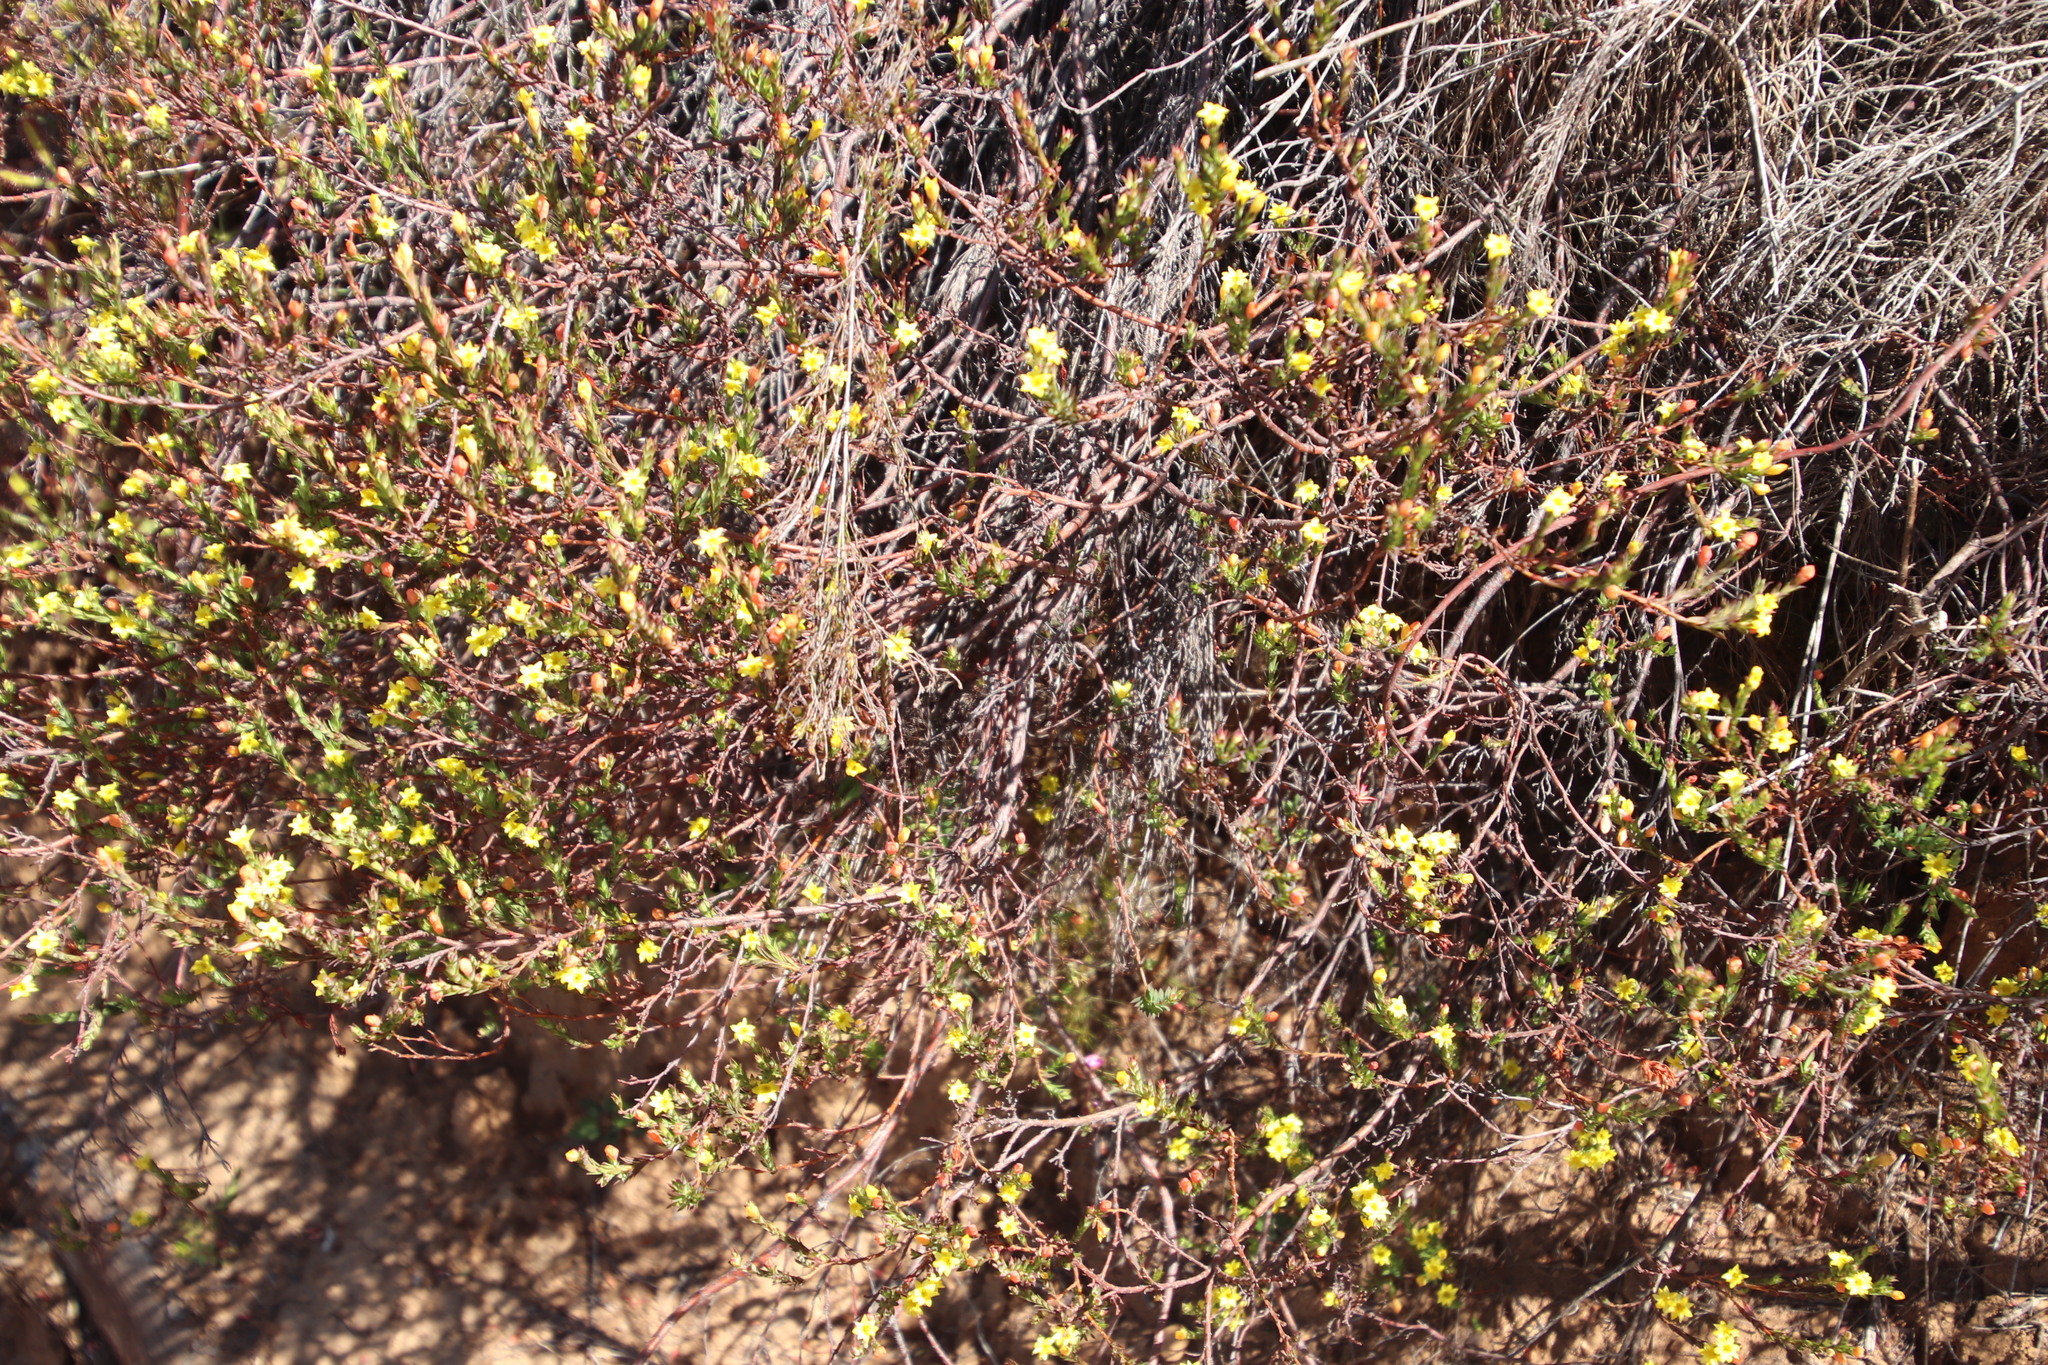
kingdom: Plantae
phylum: Tracheophyta
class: Magnoliopsida
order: Malvales
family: Thymelaeaceae
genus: Gnidia
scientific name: Gnidia juniperifolia
